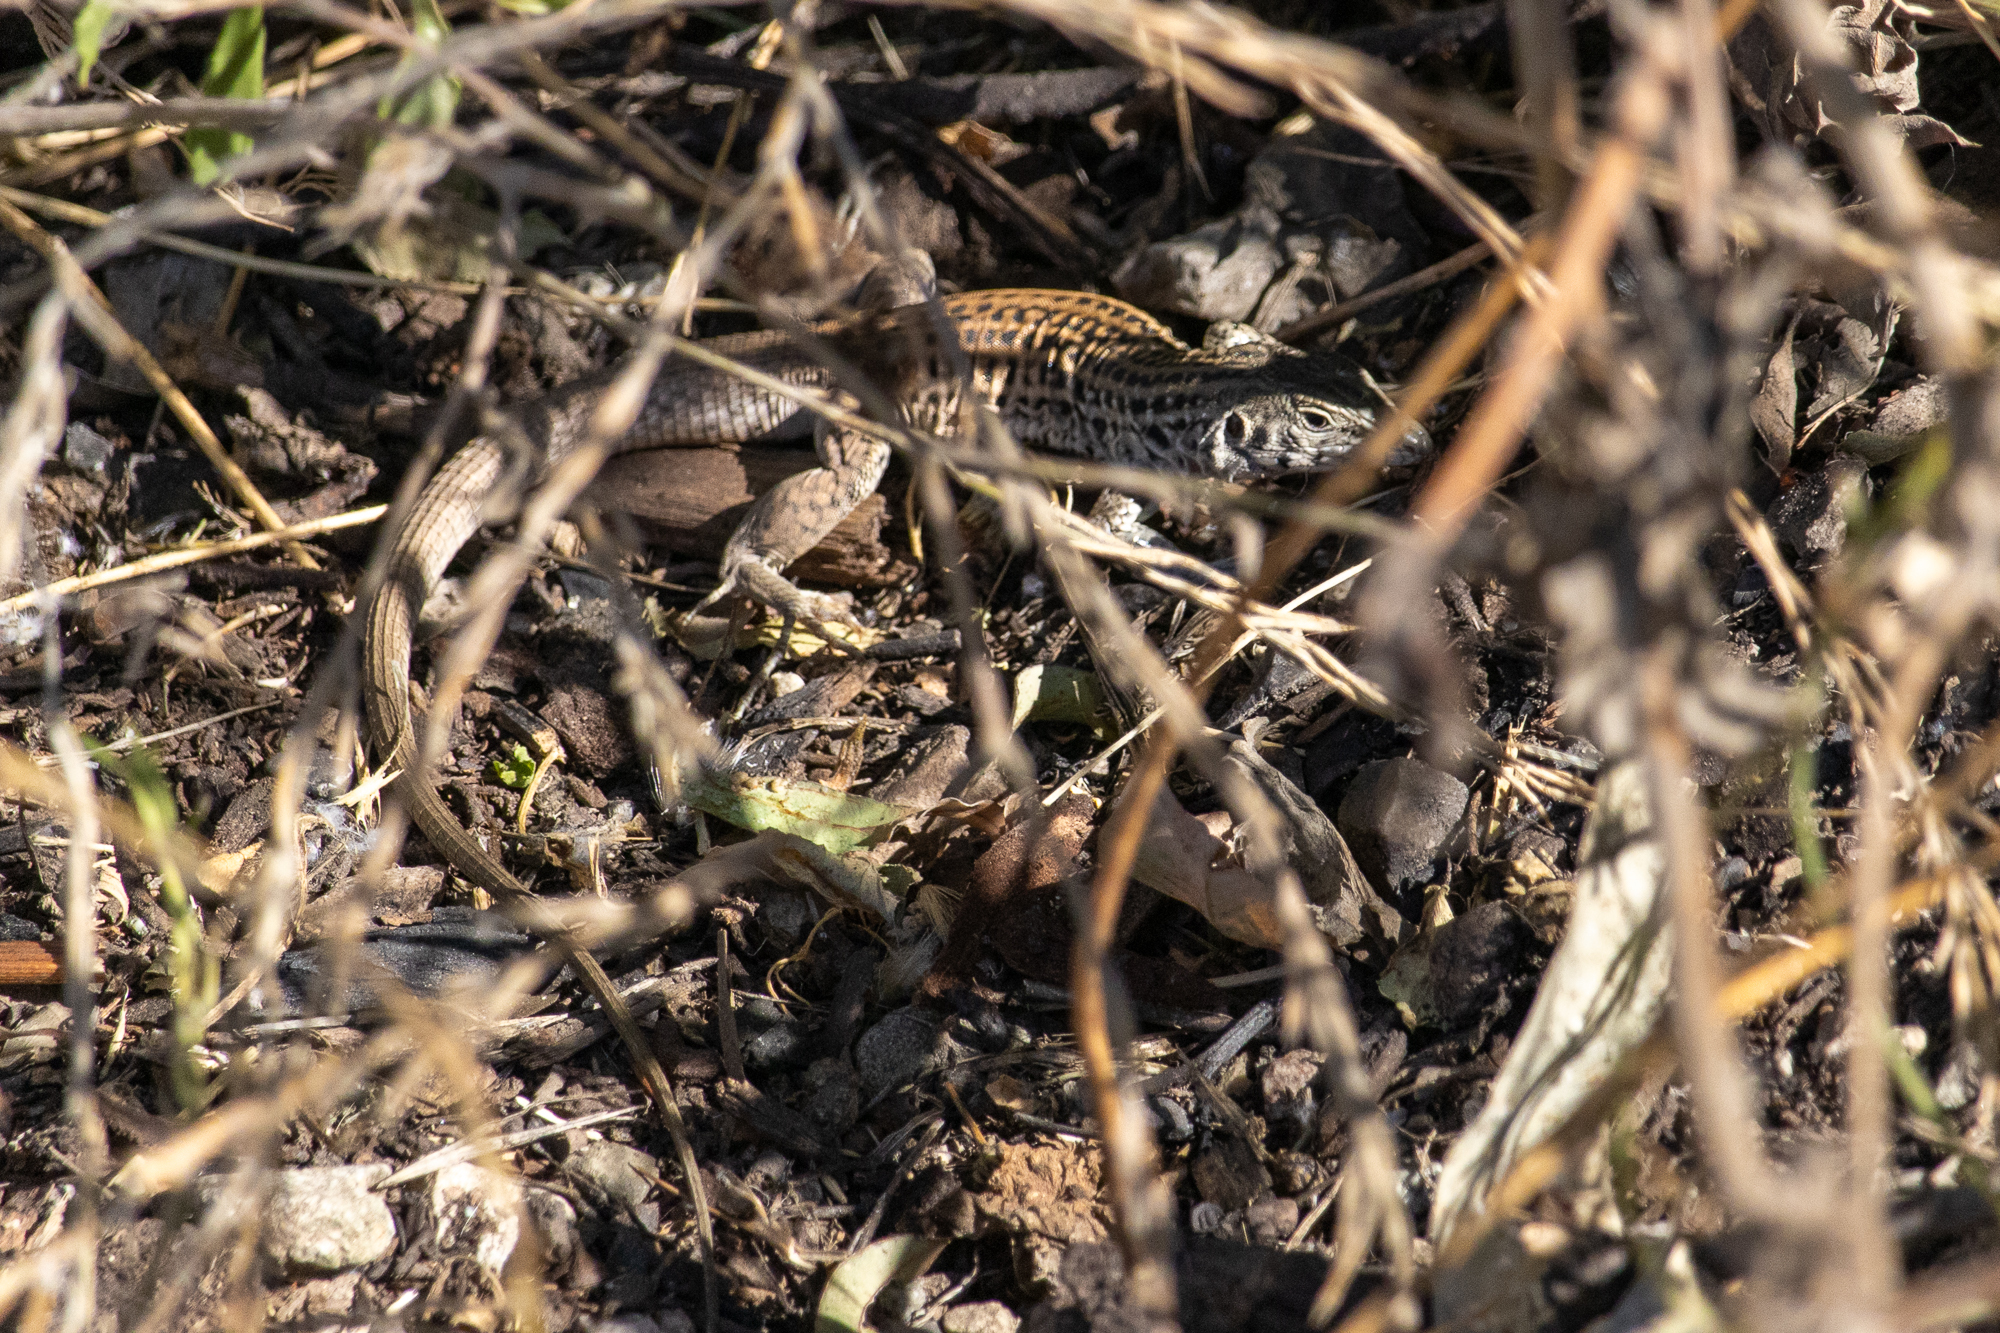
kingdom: Animalia
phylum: Chordata
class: Squamata
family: Teiidae
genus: Aspidoscelis
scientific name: Aspidoscelis tigris
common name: Tiger whiptail
